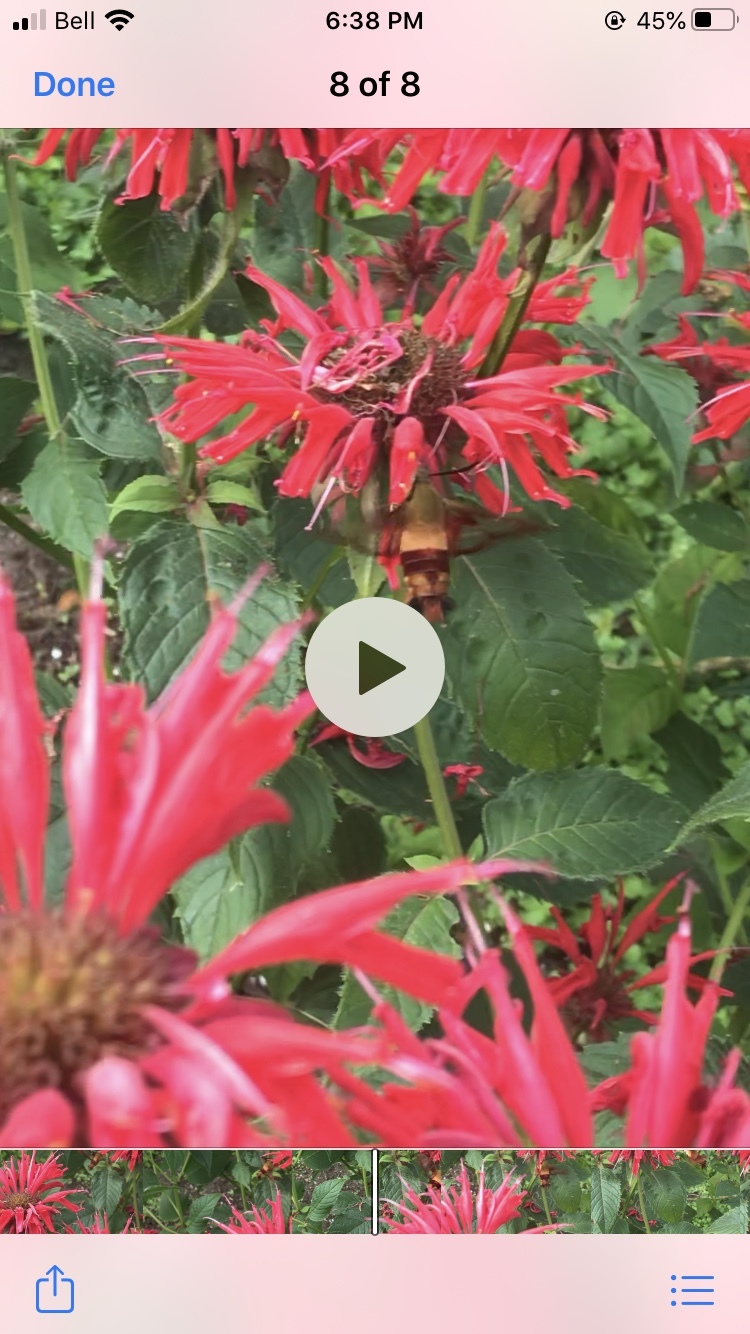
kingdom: Animalia
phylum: Arthropoda
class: Insecta
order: Lepidoptera
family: Sphingidae
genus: Hemaris
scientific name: Hemaris thysbe
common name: Common clear-wing
